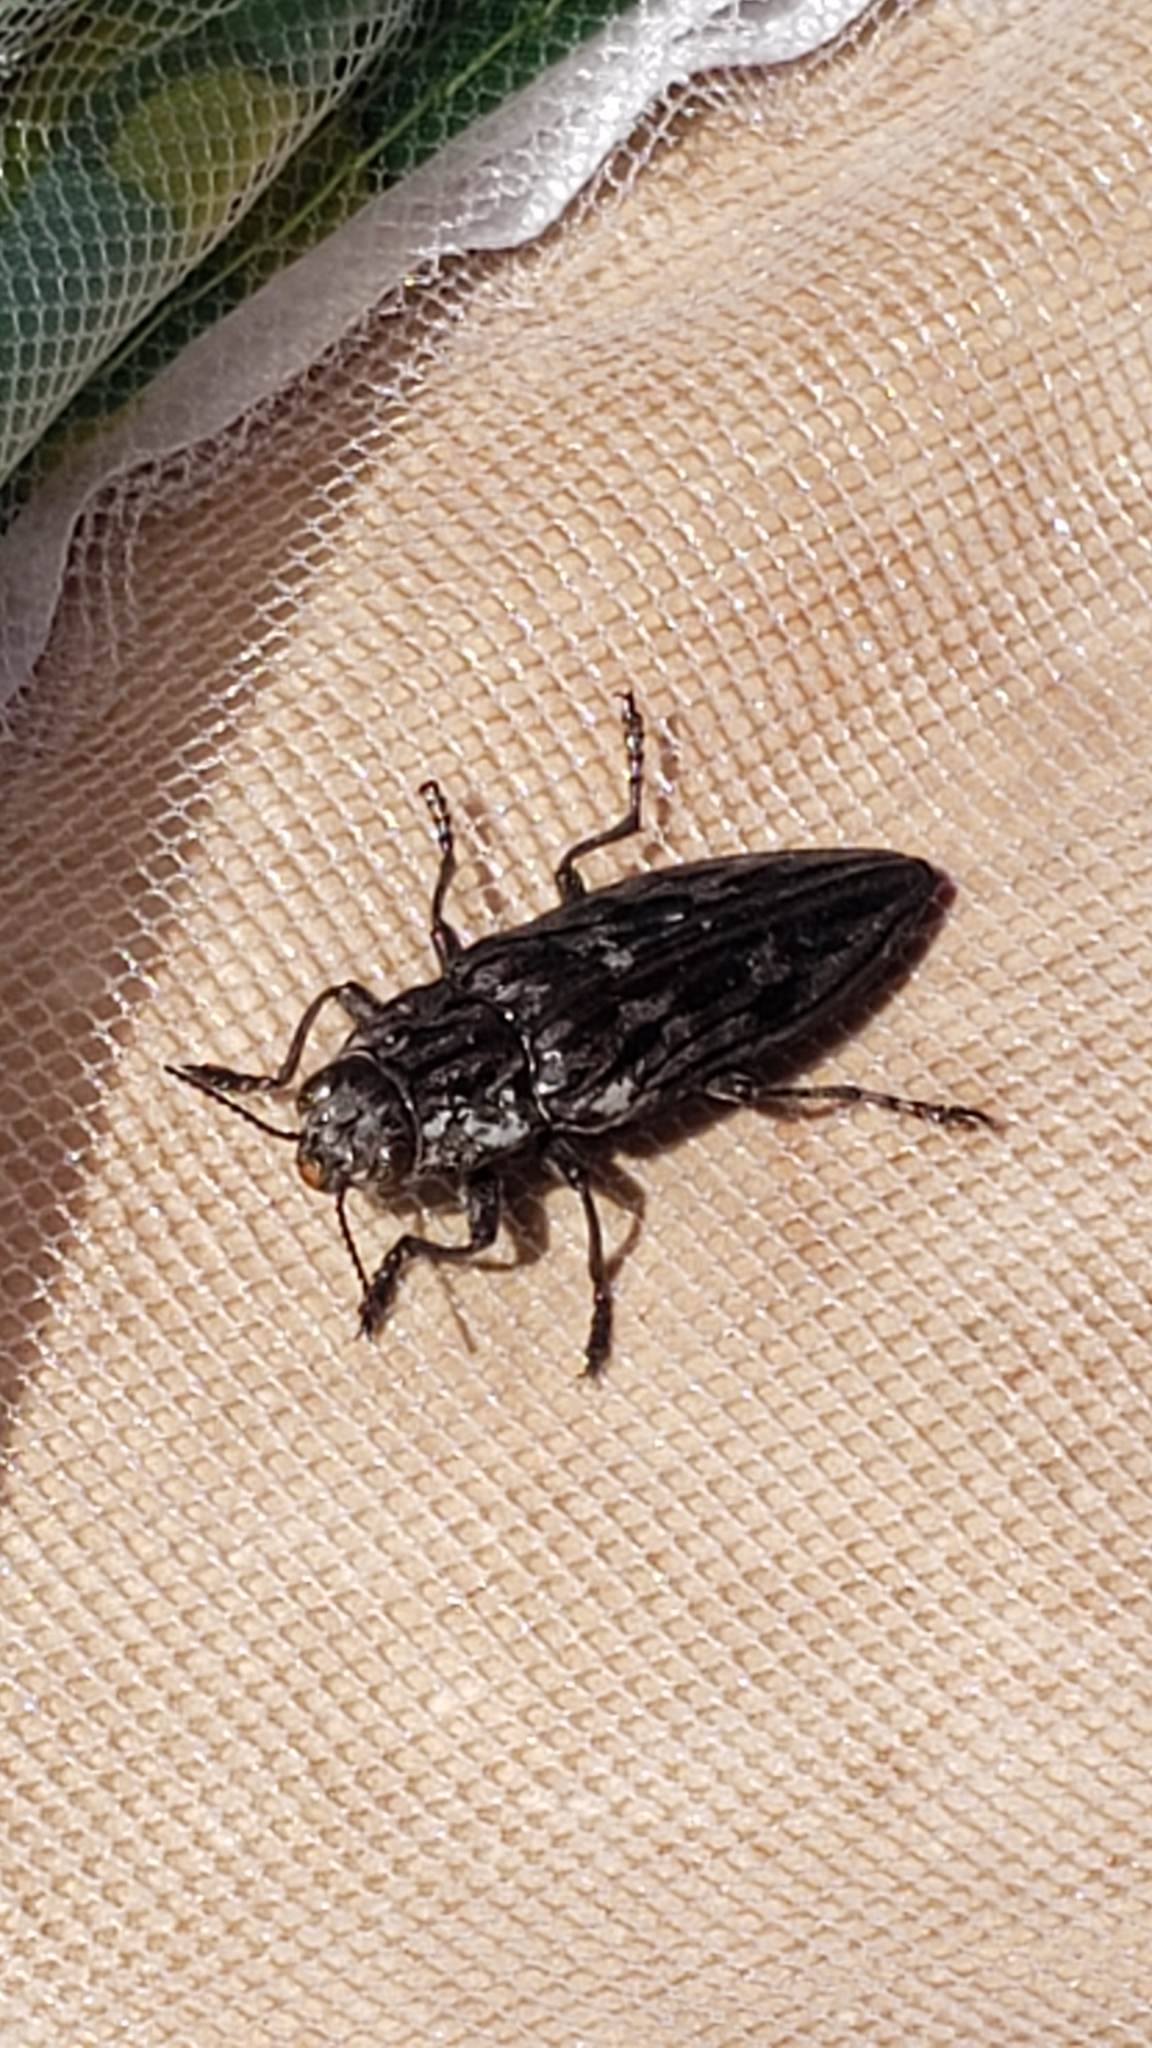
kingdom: Animalia
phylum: Arthropoda
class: Insecta
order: Coleoptera
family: Buprestidae
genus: Chalcophora
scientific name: Chalcophora angulicollis
